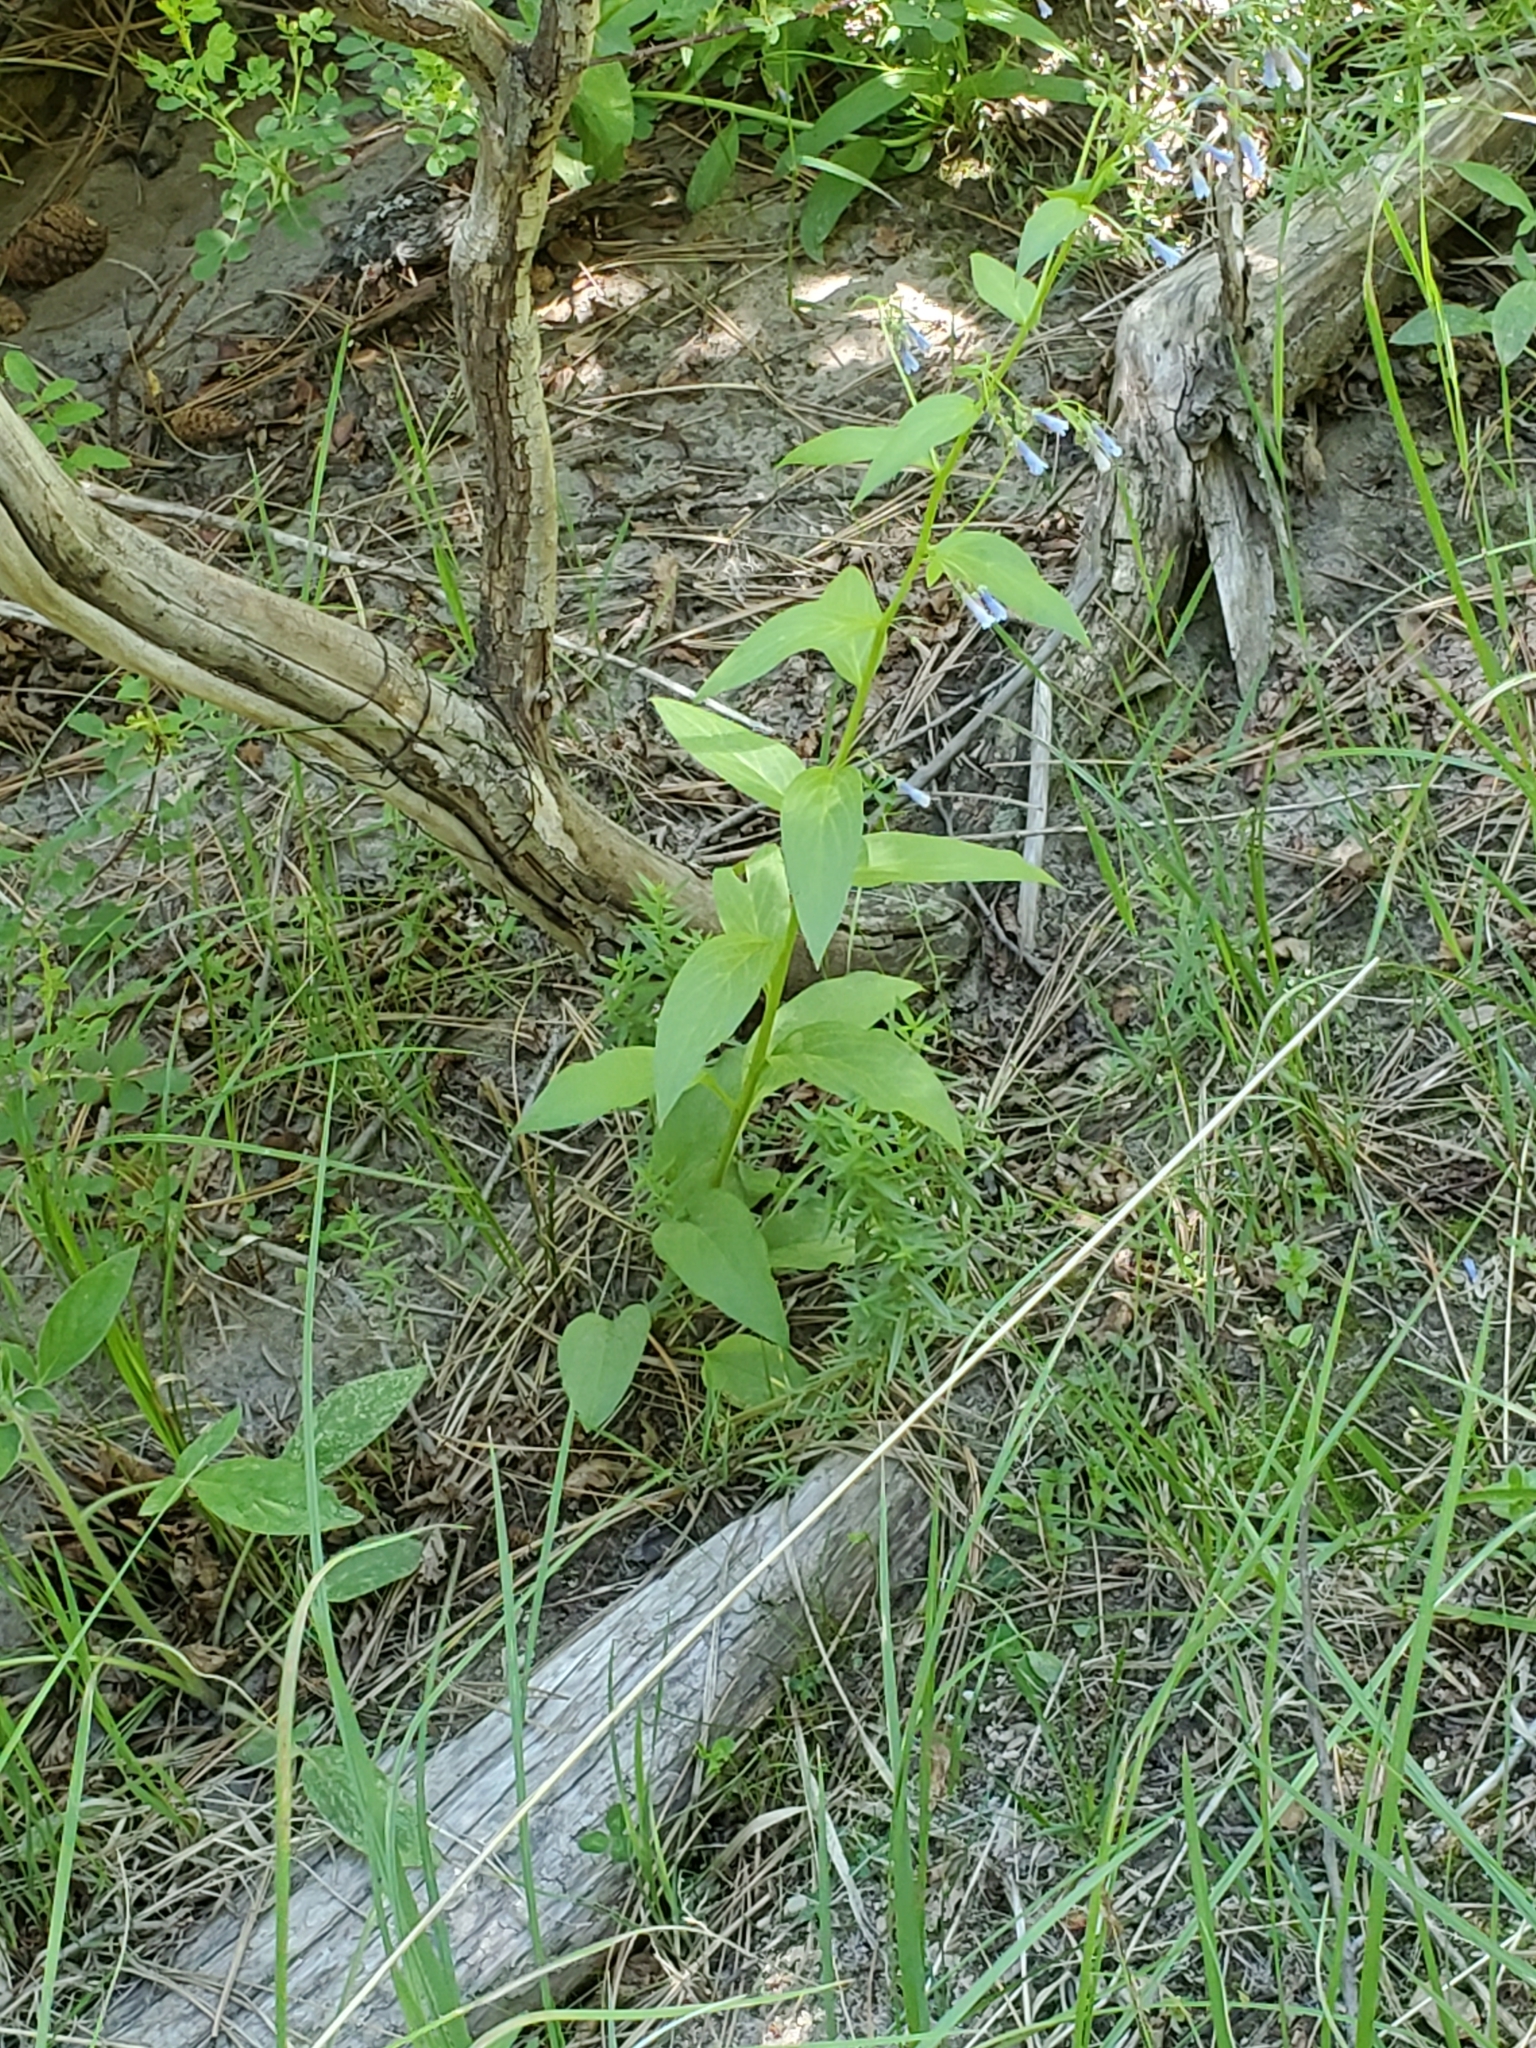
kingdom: Plantae
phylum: Tracheophyta
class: Magnoliopsida
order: Boraginales
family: Boraginaceae
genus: Mertensia
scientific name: Mertensia franciscana
